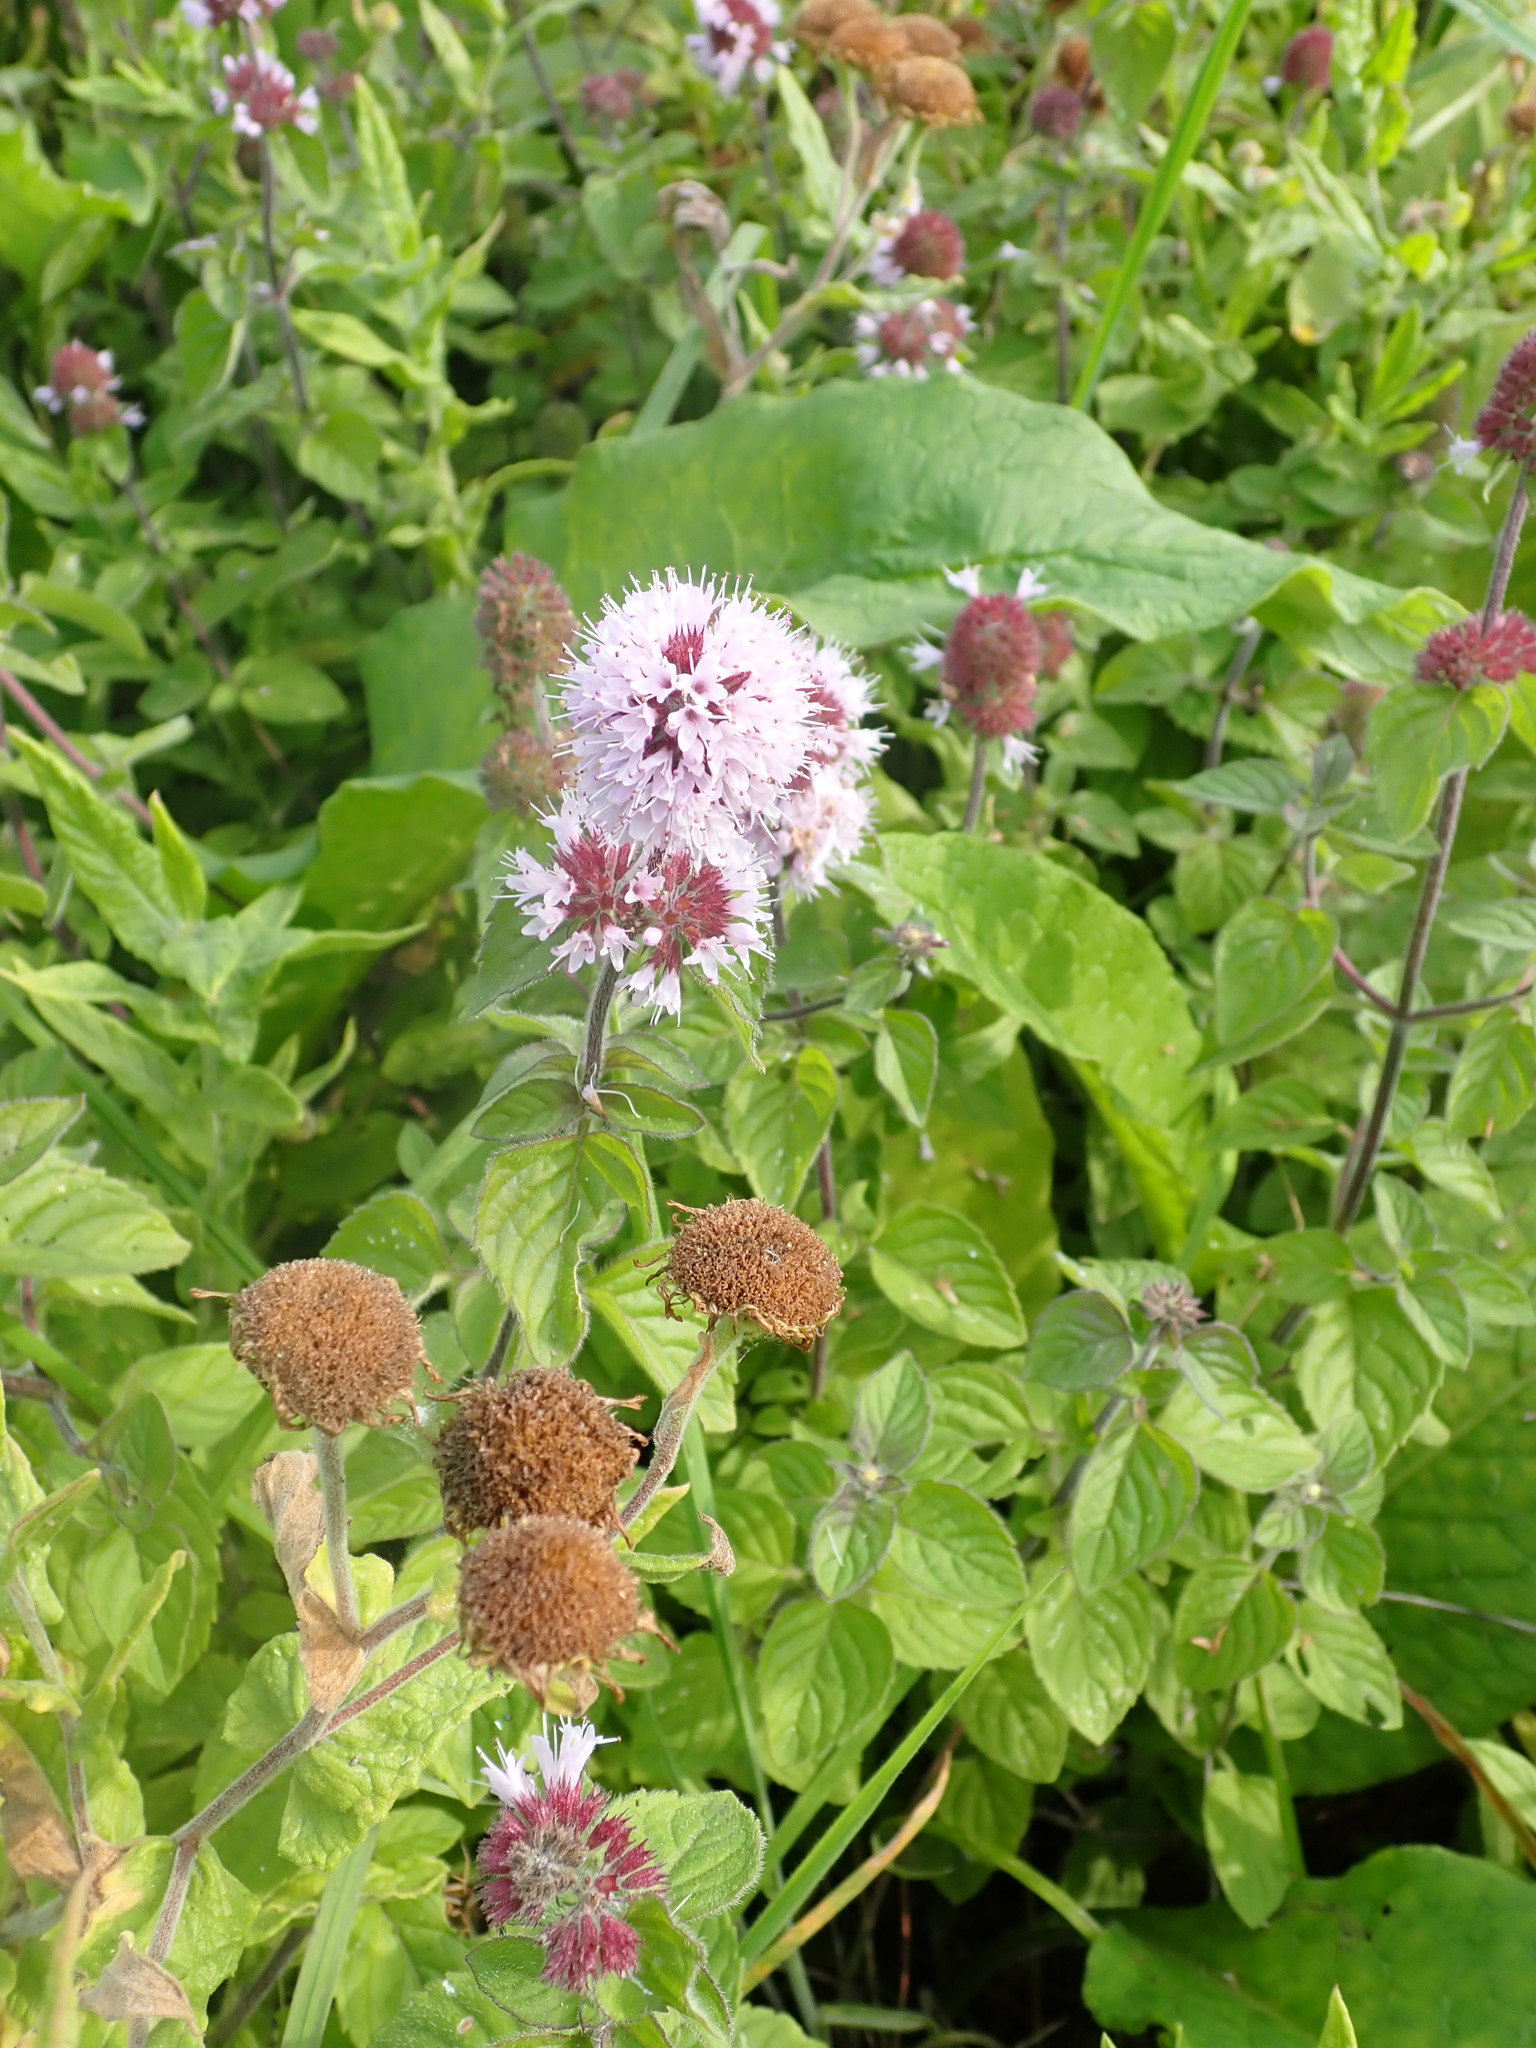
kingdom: Plantae
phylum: Tracheophyta
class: Magnoliopsida
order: Lamiales
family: Lamiaceae
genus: Mentha
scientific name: Mentha aquatica
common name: Water mint
